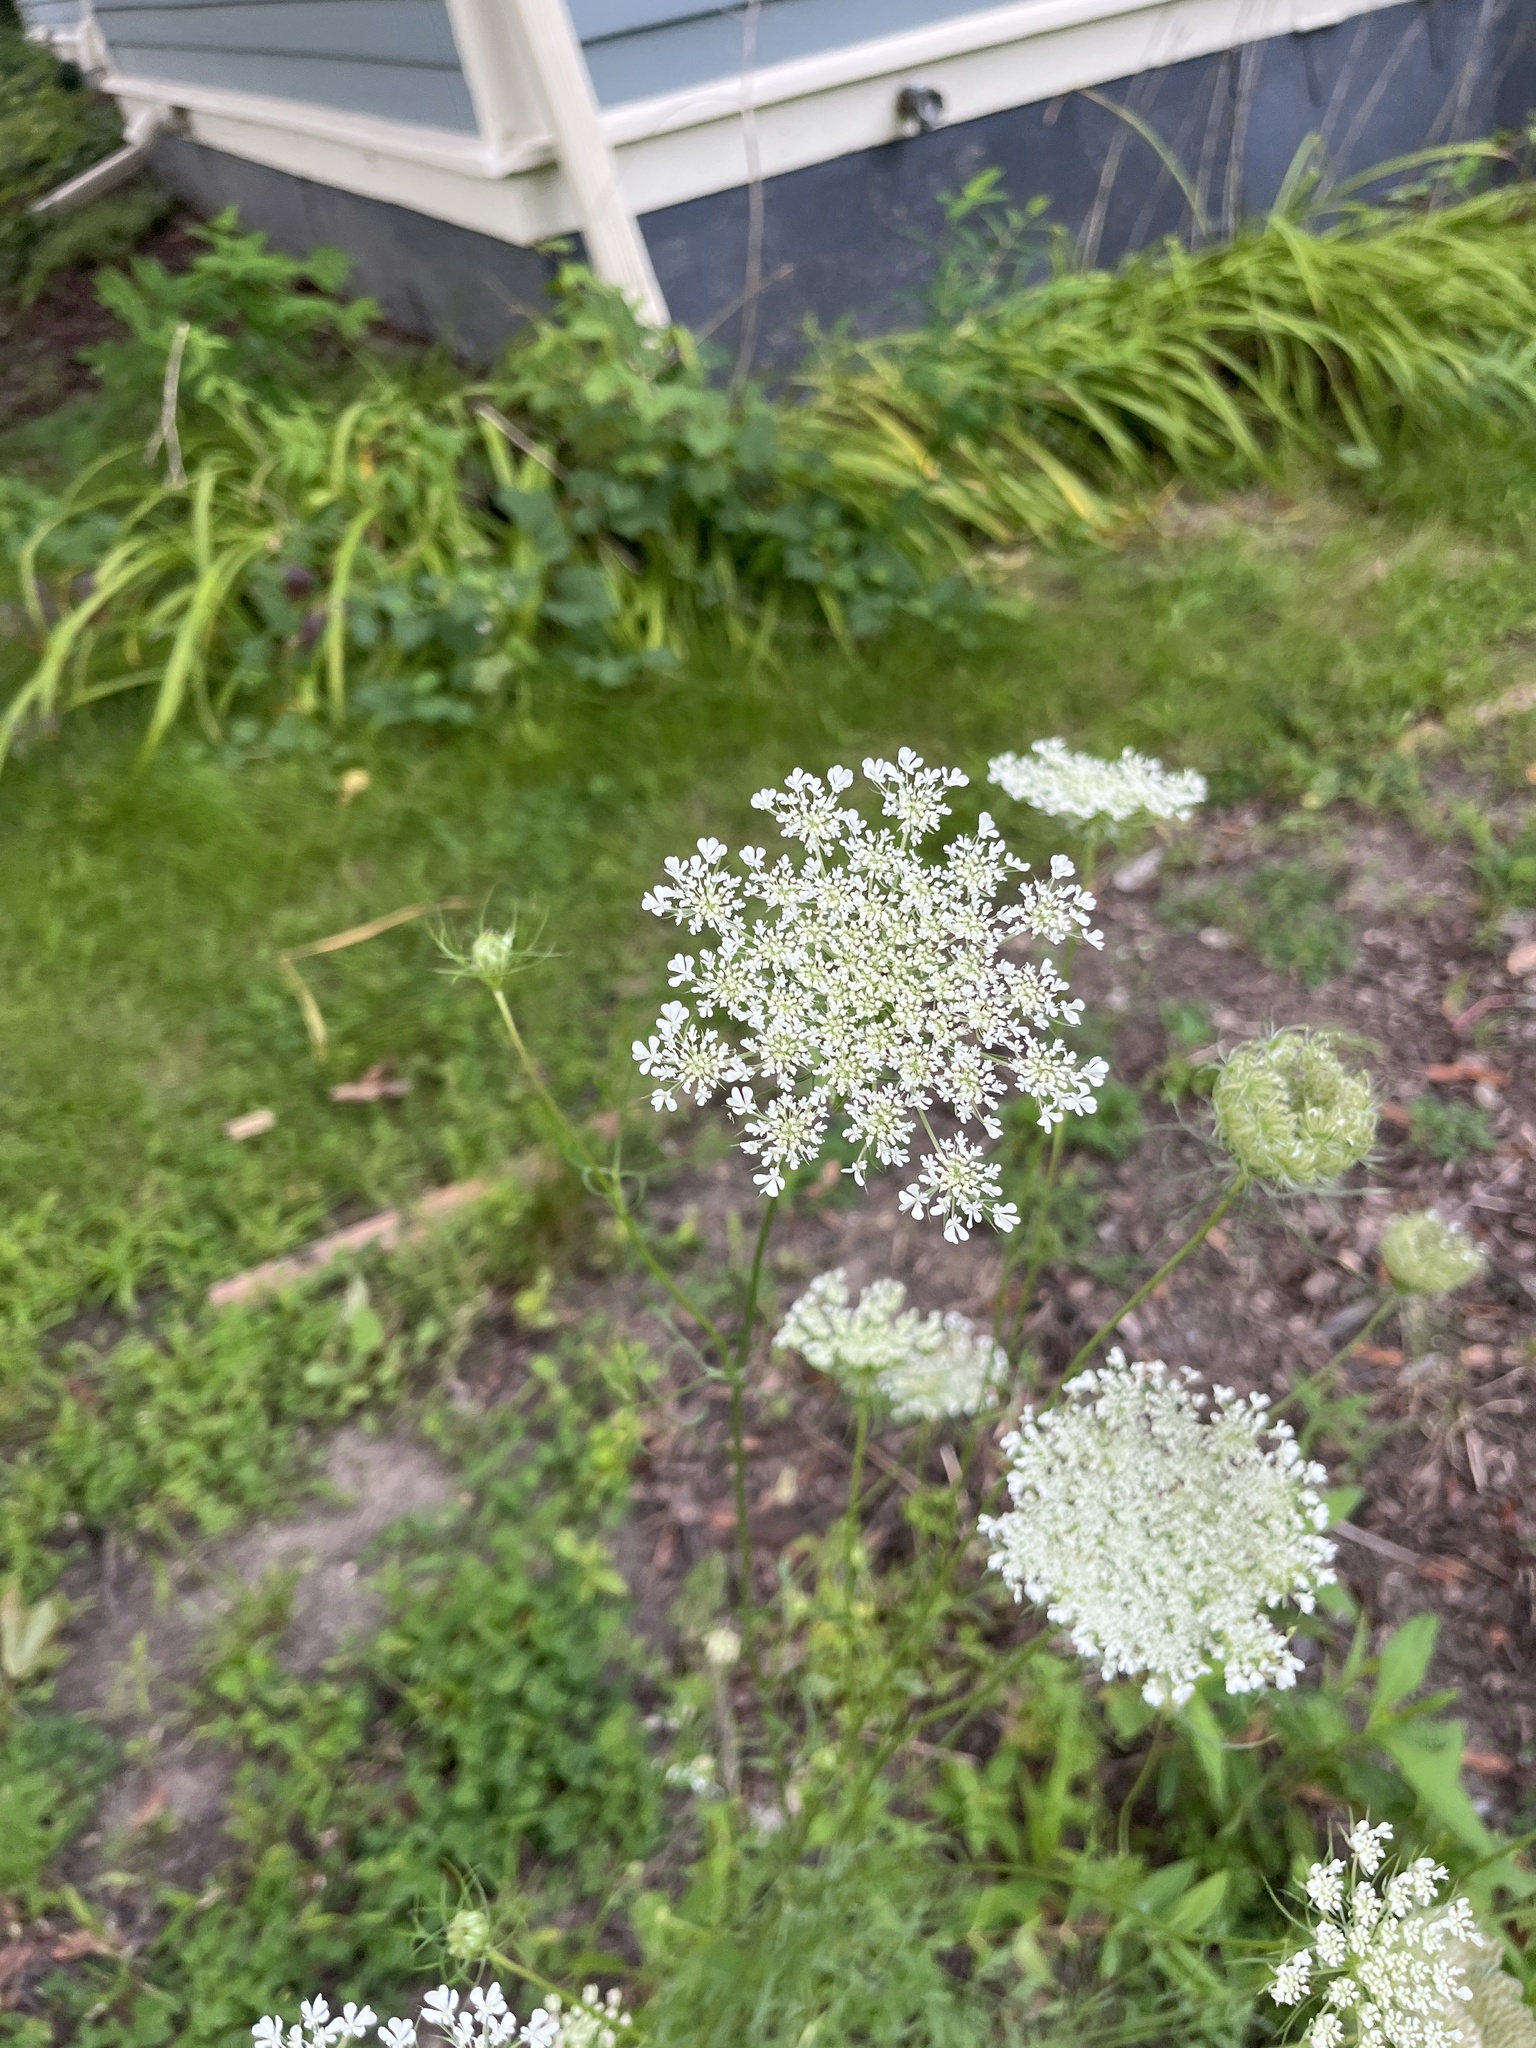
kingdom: Plantae
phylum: Tracheophyta
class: Magnoliopsida
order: Apiales
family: Apiaceae
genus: Daucus
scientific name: Daucus carota
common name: Wild carrot
